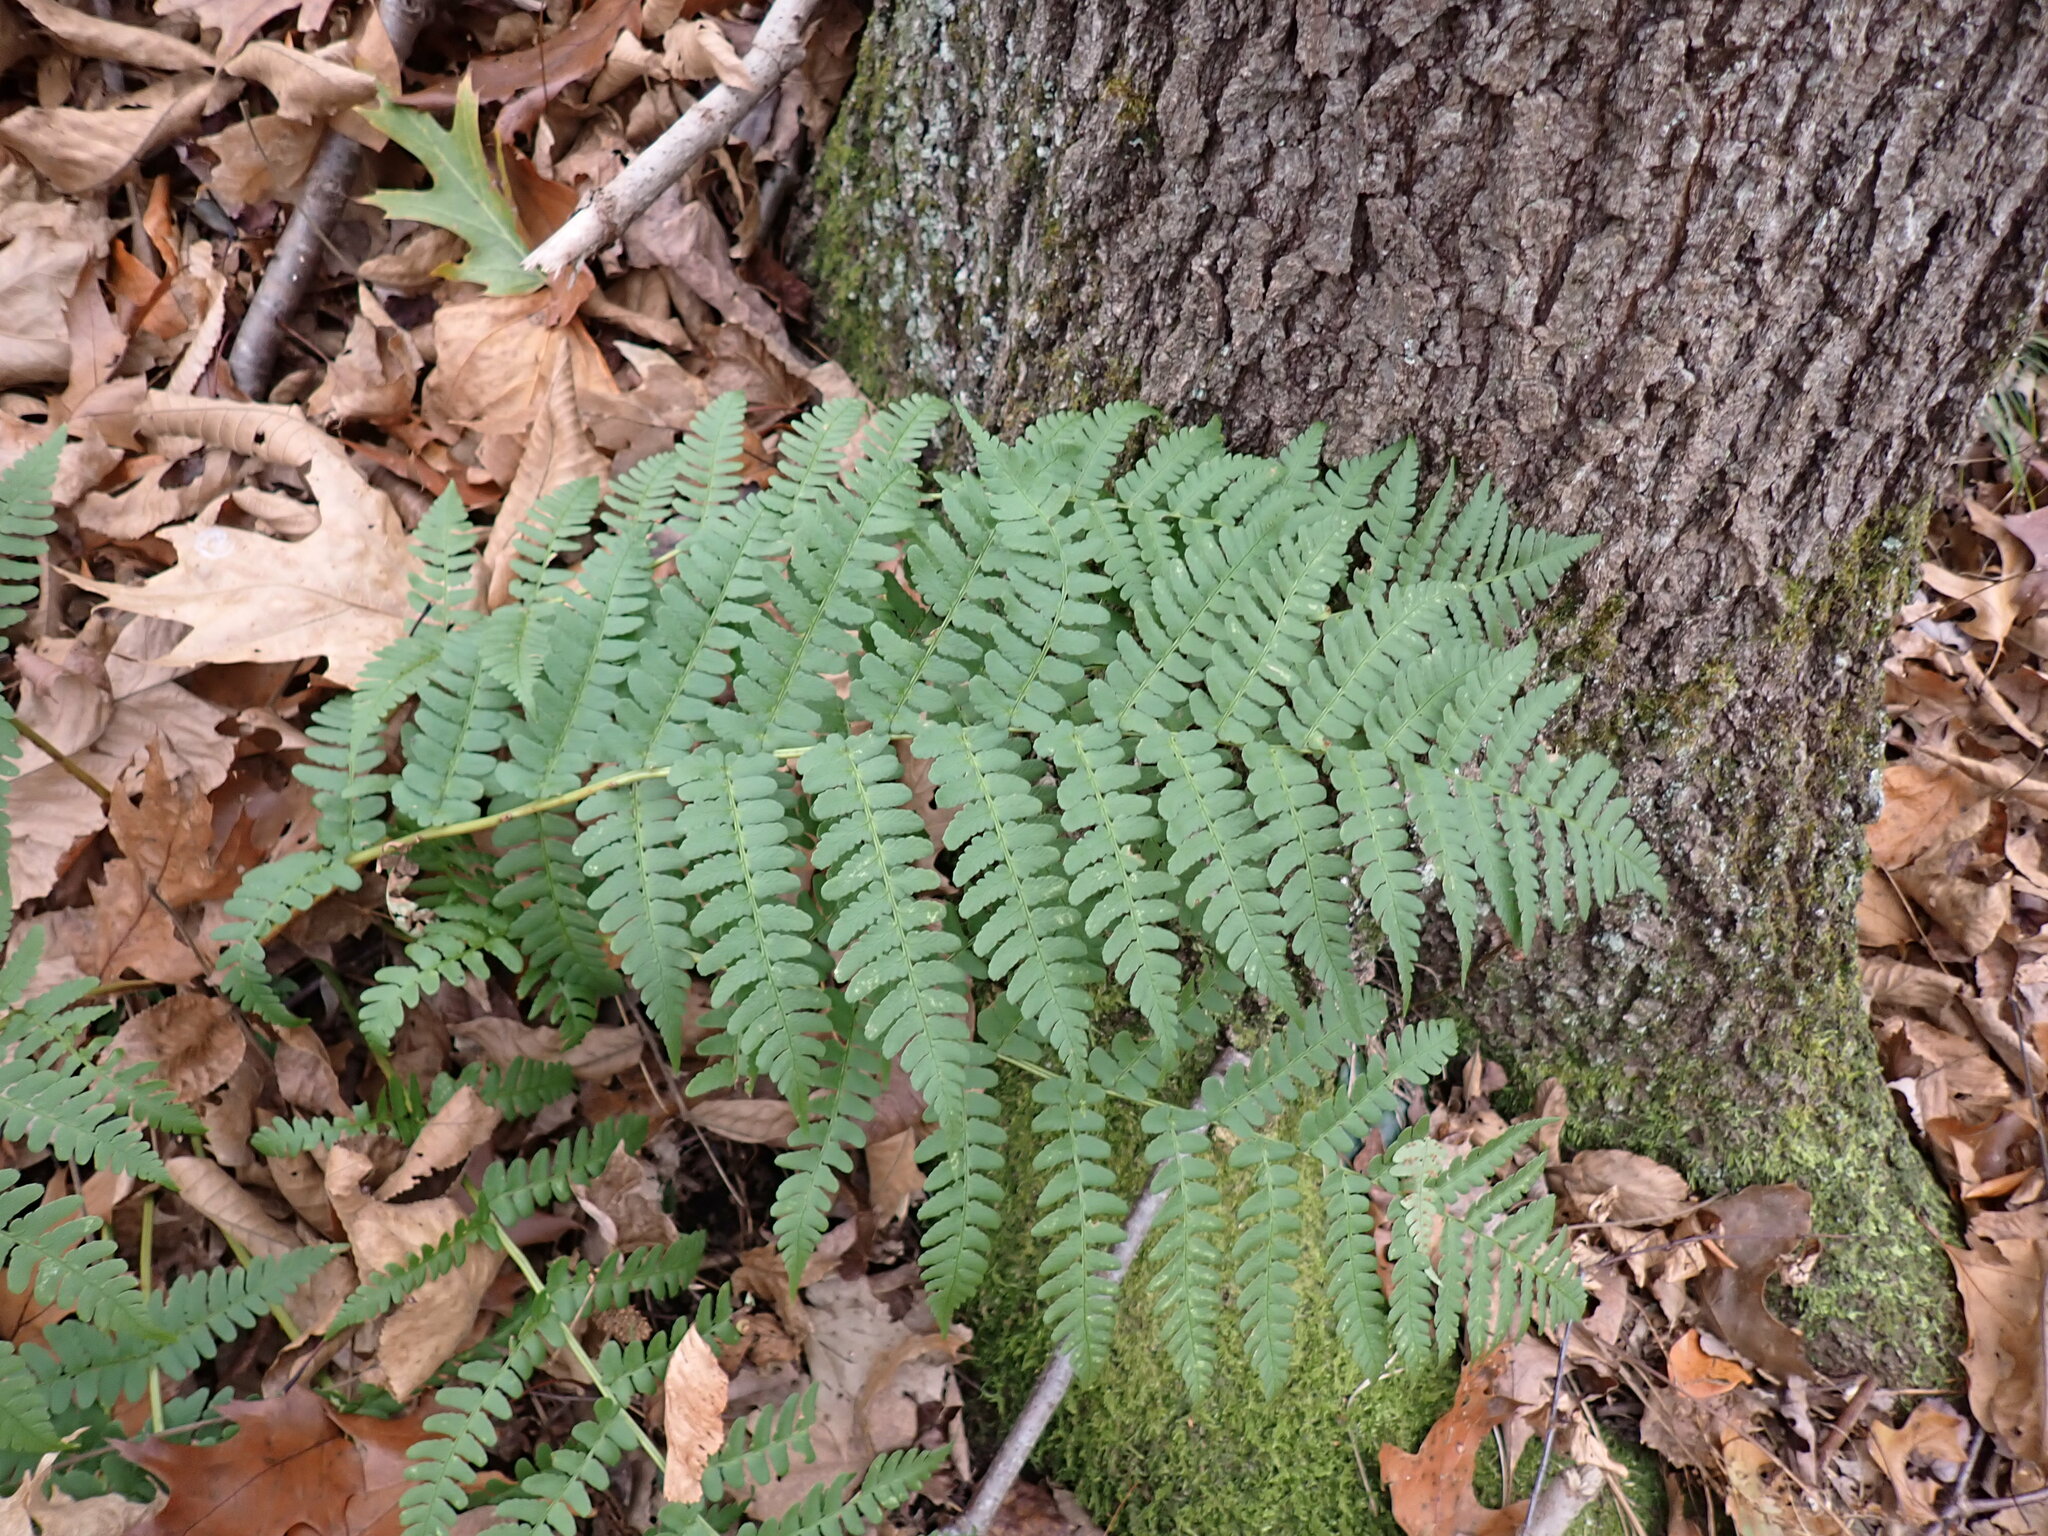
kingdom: Plantae
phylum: Tracheophyta
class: Polypodiopsida
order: Polypodiales
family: Dryopteridaceae
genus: Dryopteris
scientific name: Dryopteris marginalis
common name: Marginal wood fern
